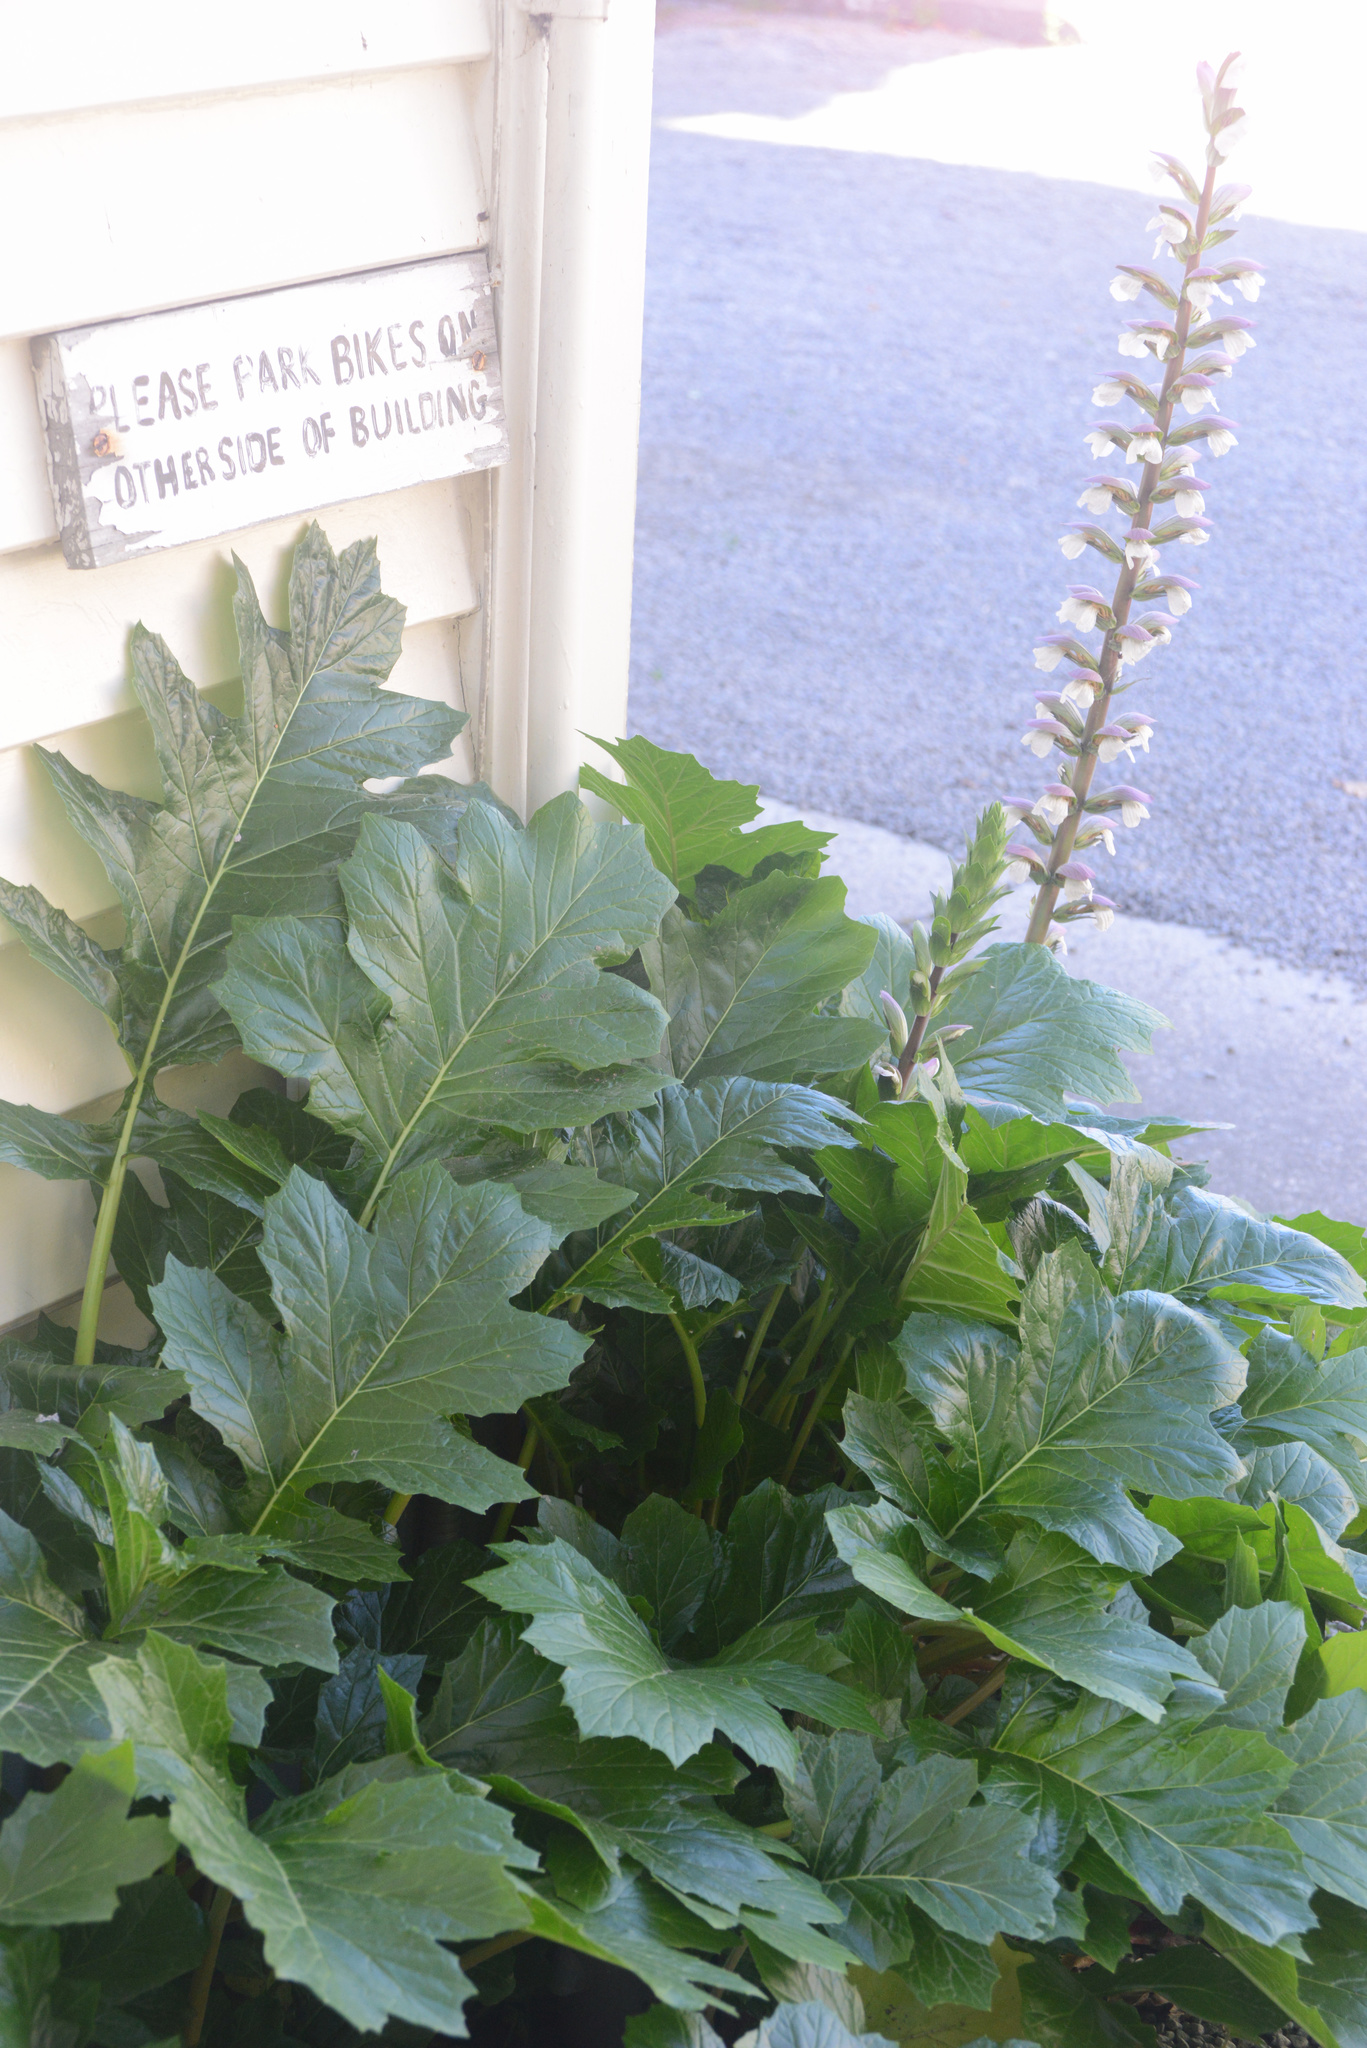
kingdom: Plantae
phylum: Tracheophyta
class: Magnoliopsida
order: Lamiales
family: Acanthaceae
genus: Acanthus
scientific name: Acanthus mollis
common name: Bear's-breech
